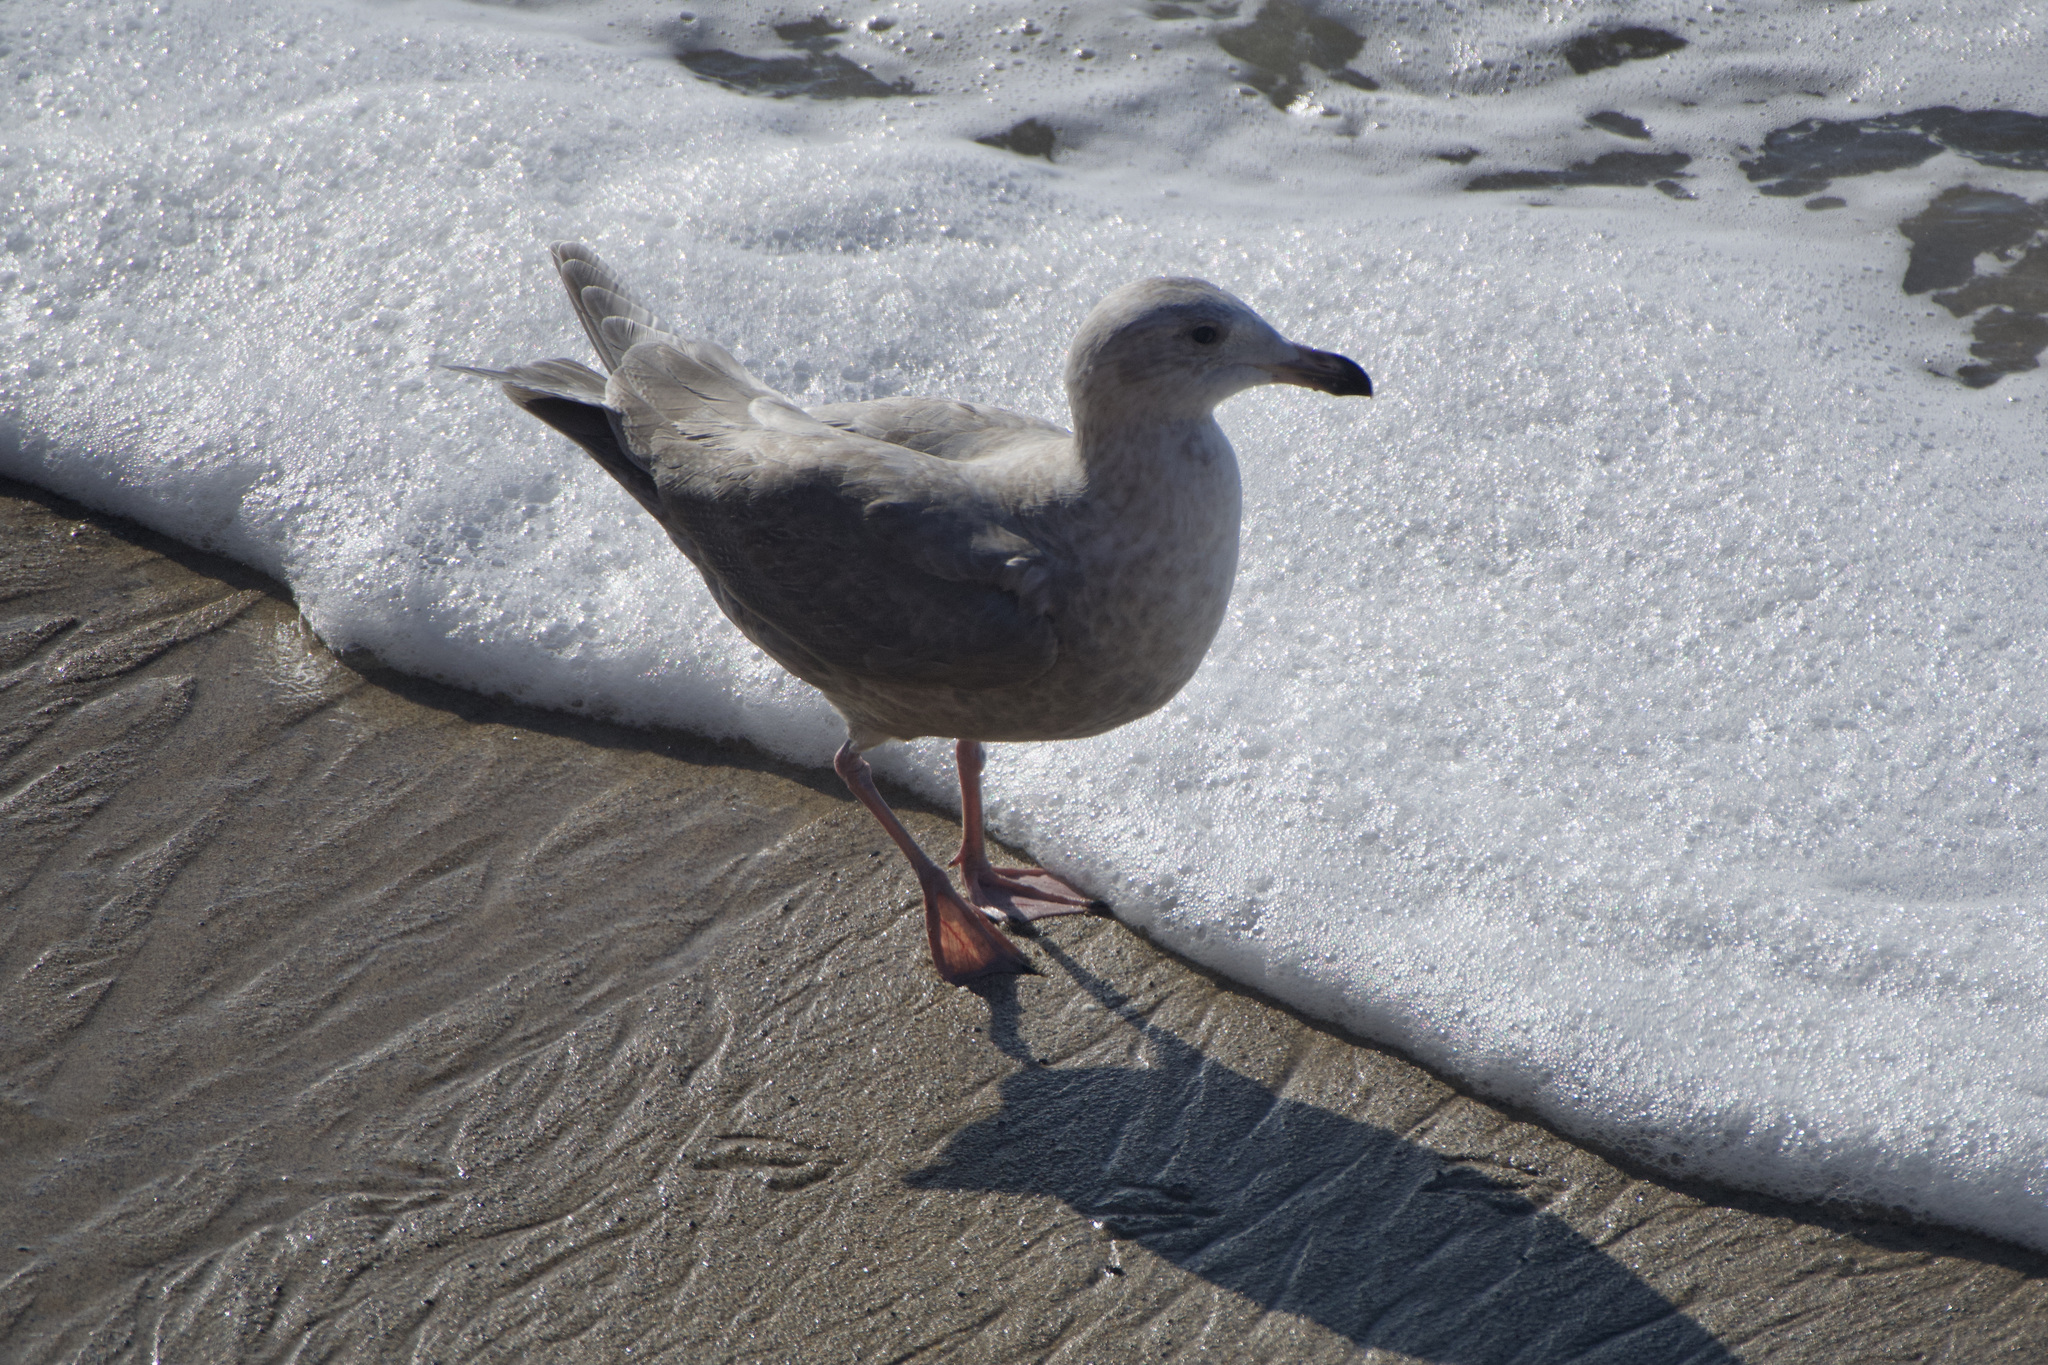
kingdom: Animalia
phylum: Chordata
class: Aves
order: Charadriiformes
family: Laridae
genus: Larus
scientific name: Larus glaucescens
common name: Glaucous-winged gull
